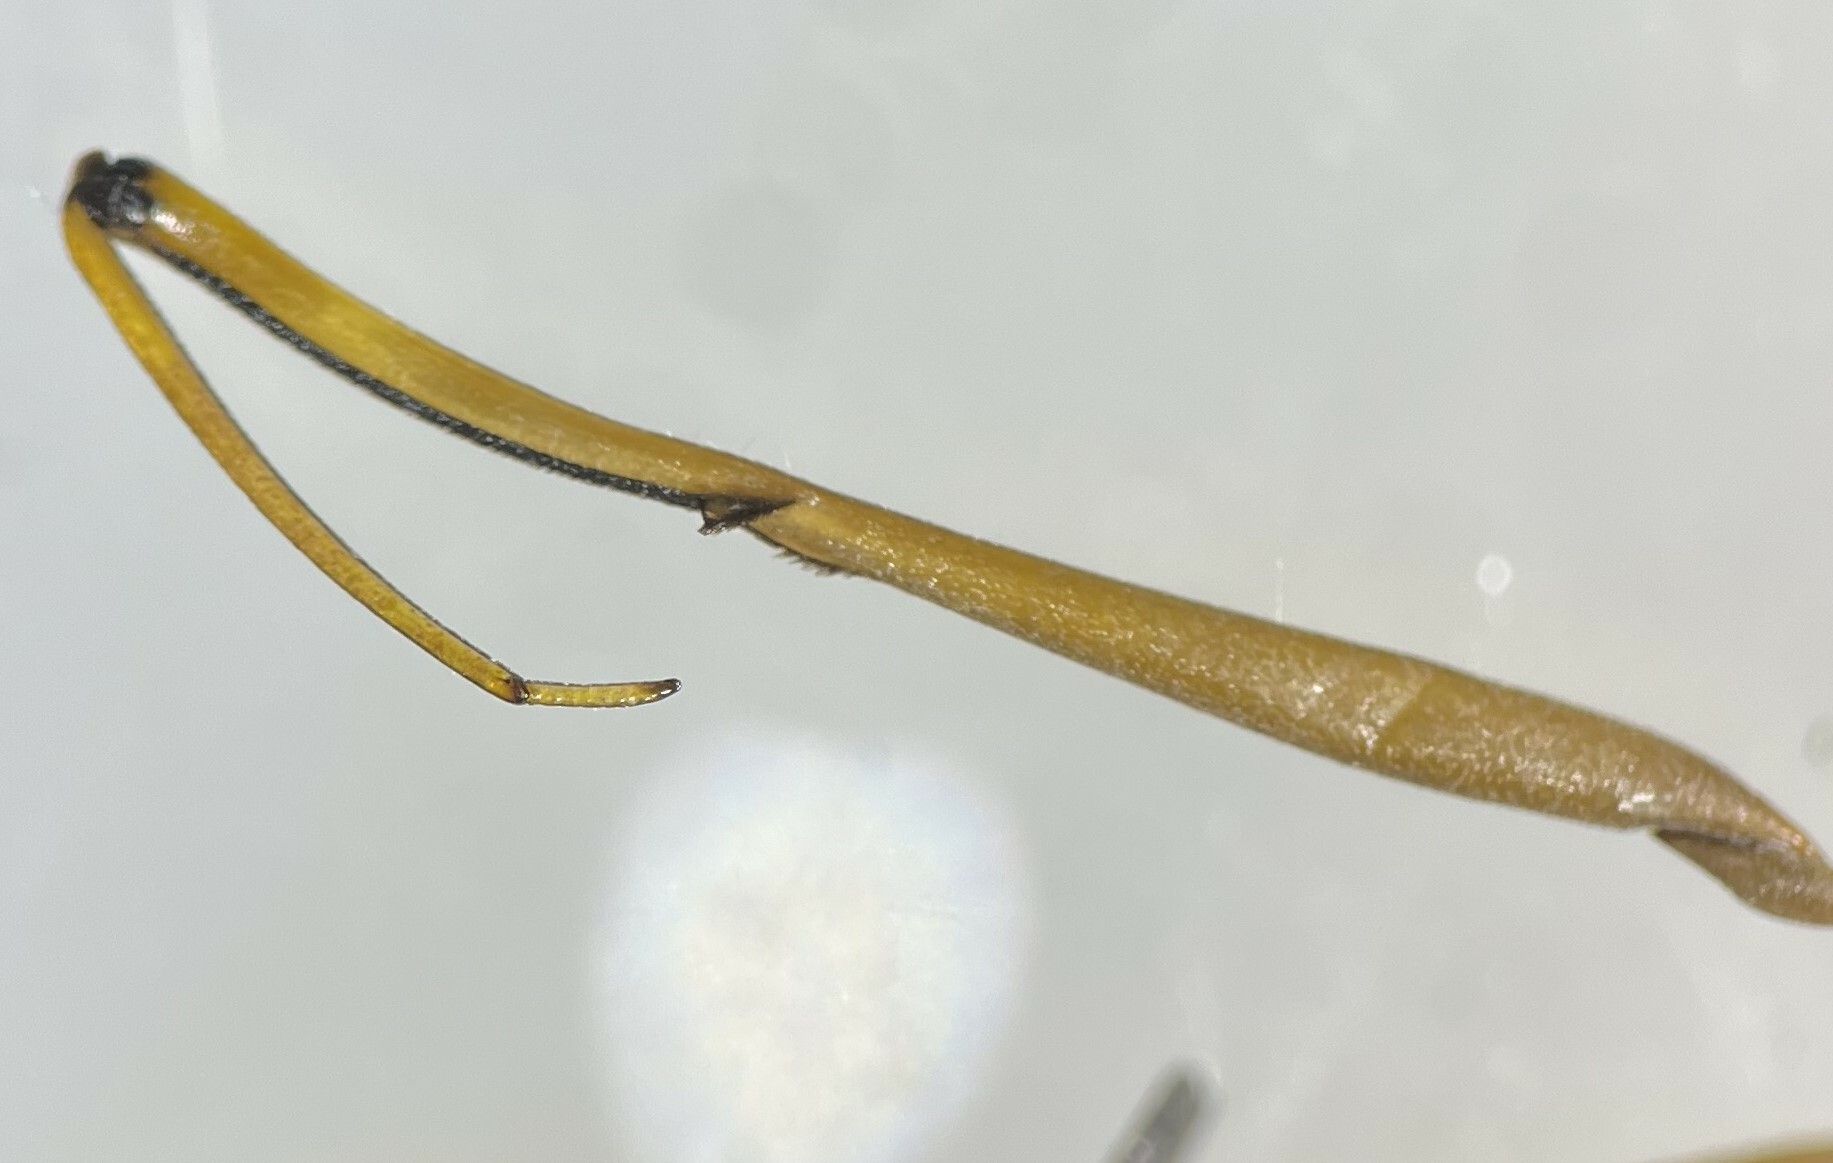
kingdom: Animalia
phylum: Arthropoda
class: Insecta
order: Hemiptera
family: Nepidae
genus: Ranatra
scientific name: Ranatra nigra
